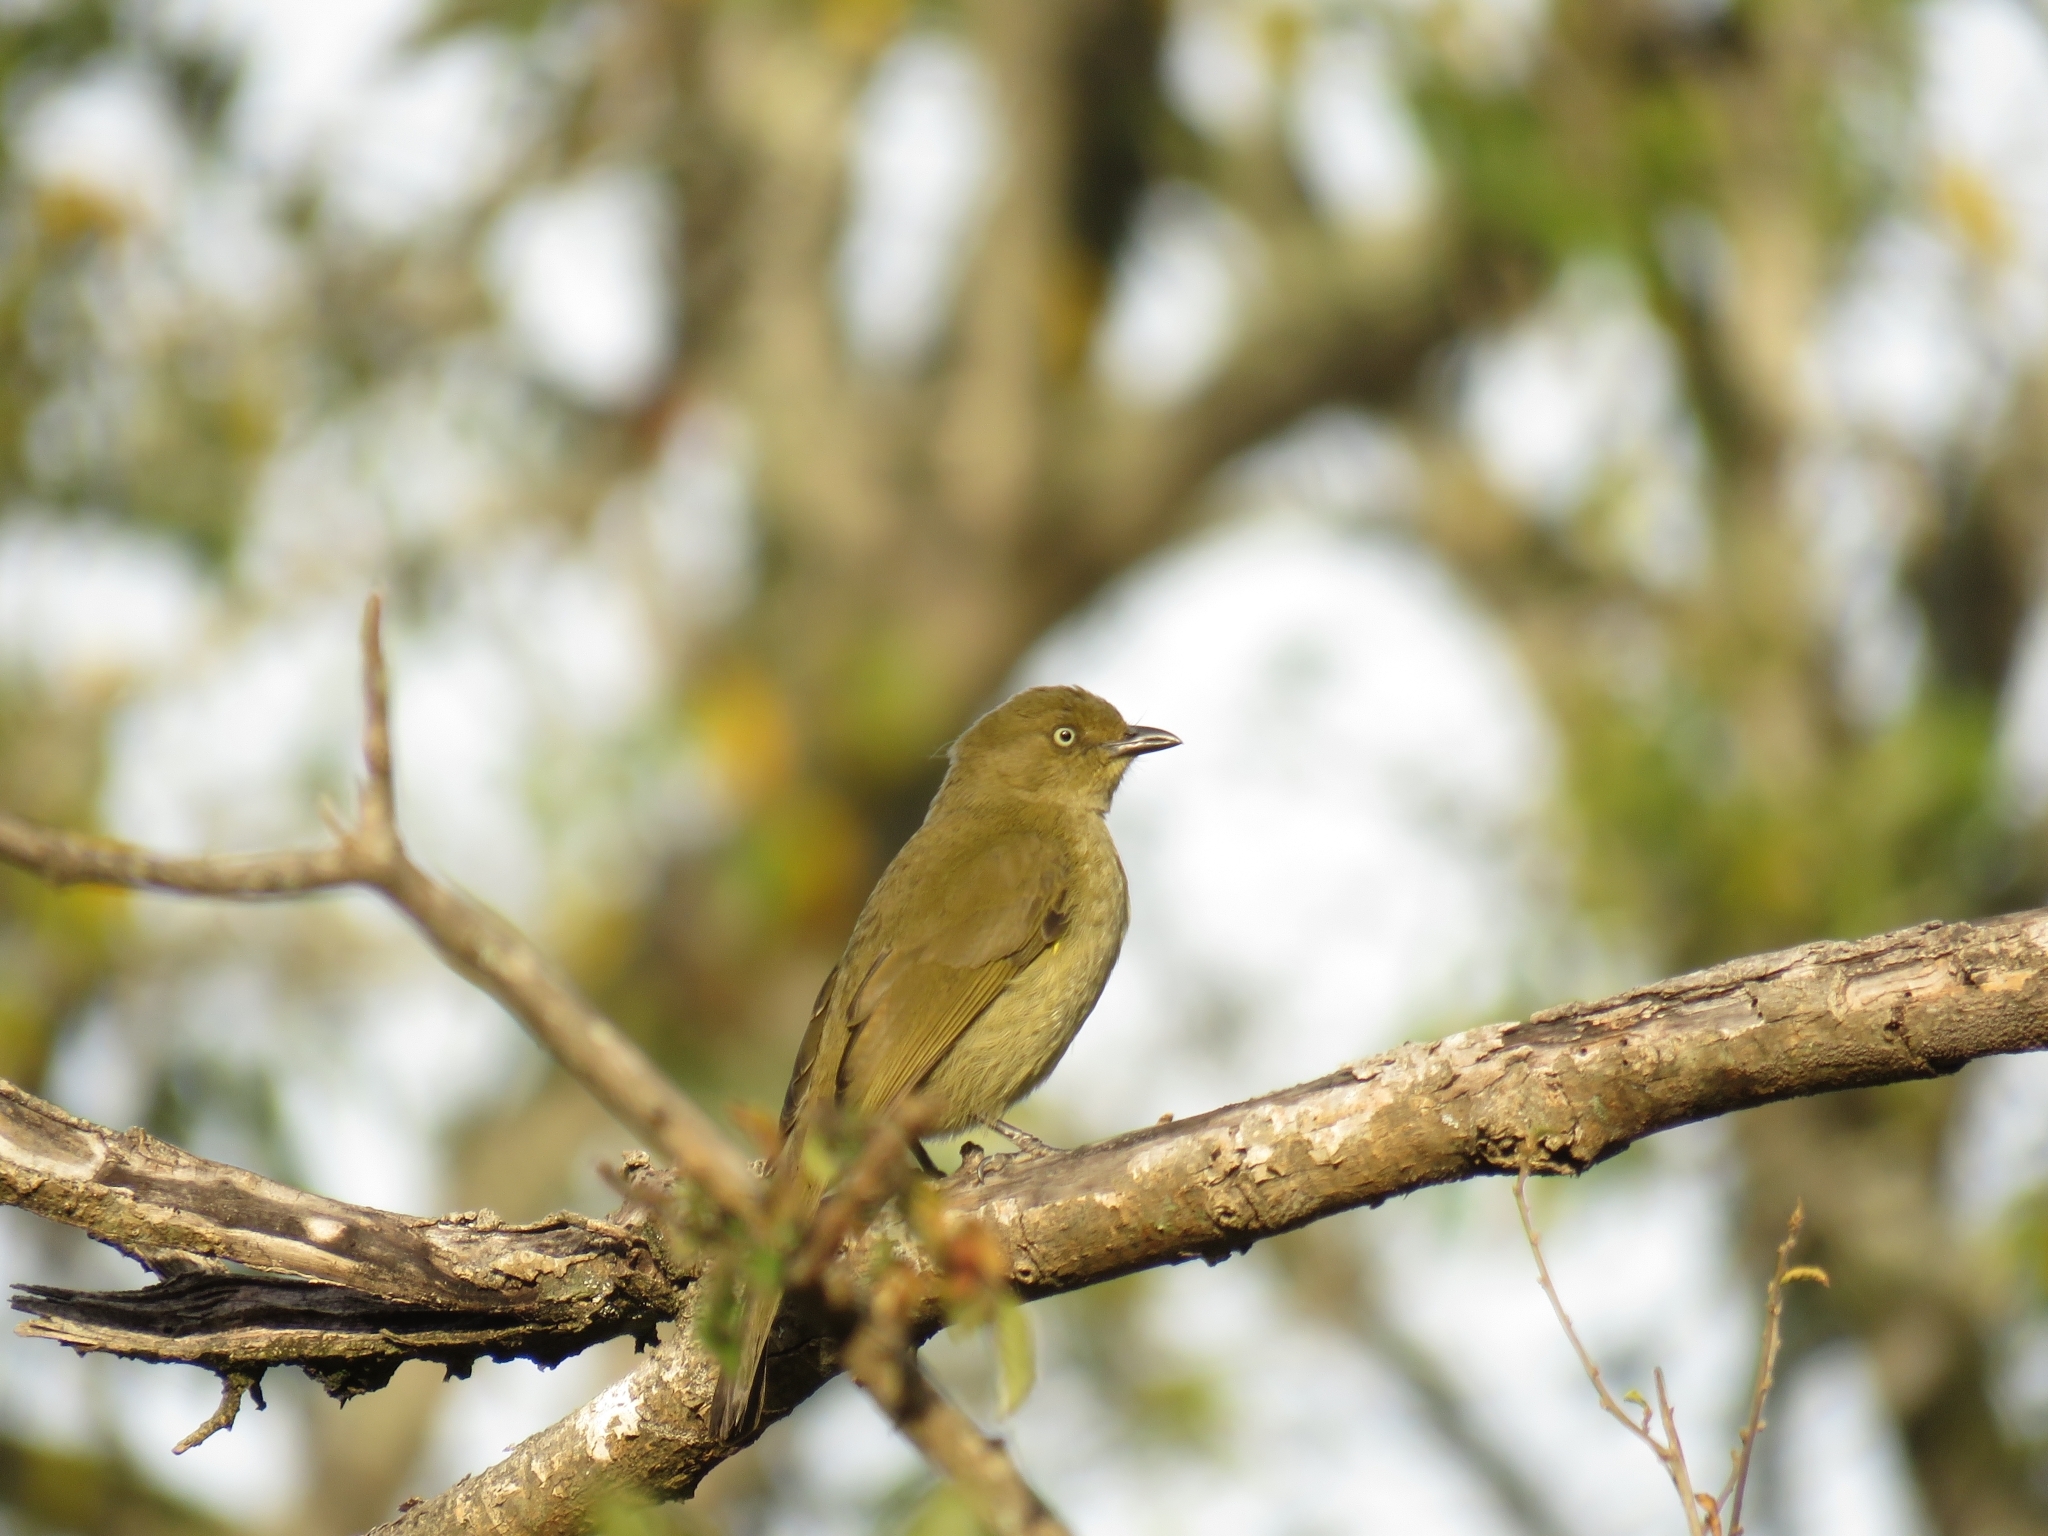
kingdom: Animalia
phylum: Chordata
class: Aves
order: Passeriformes
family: Pycnonotidae
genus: Andropadus
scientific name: Andropadus importunus
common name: Sombre greenbul
